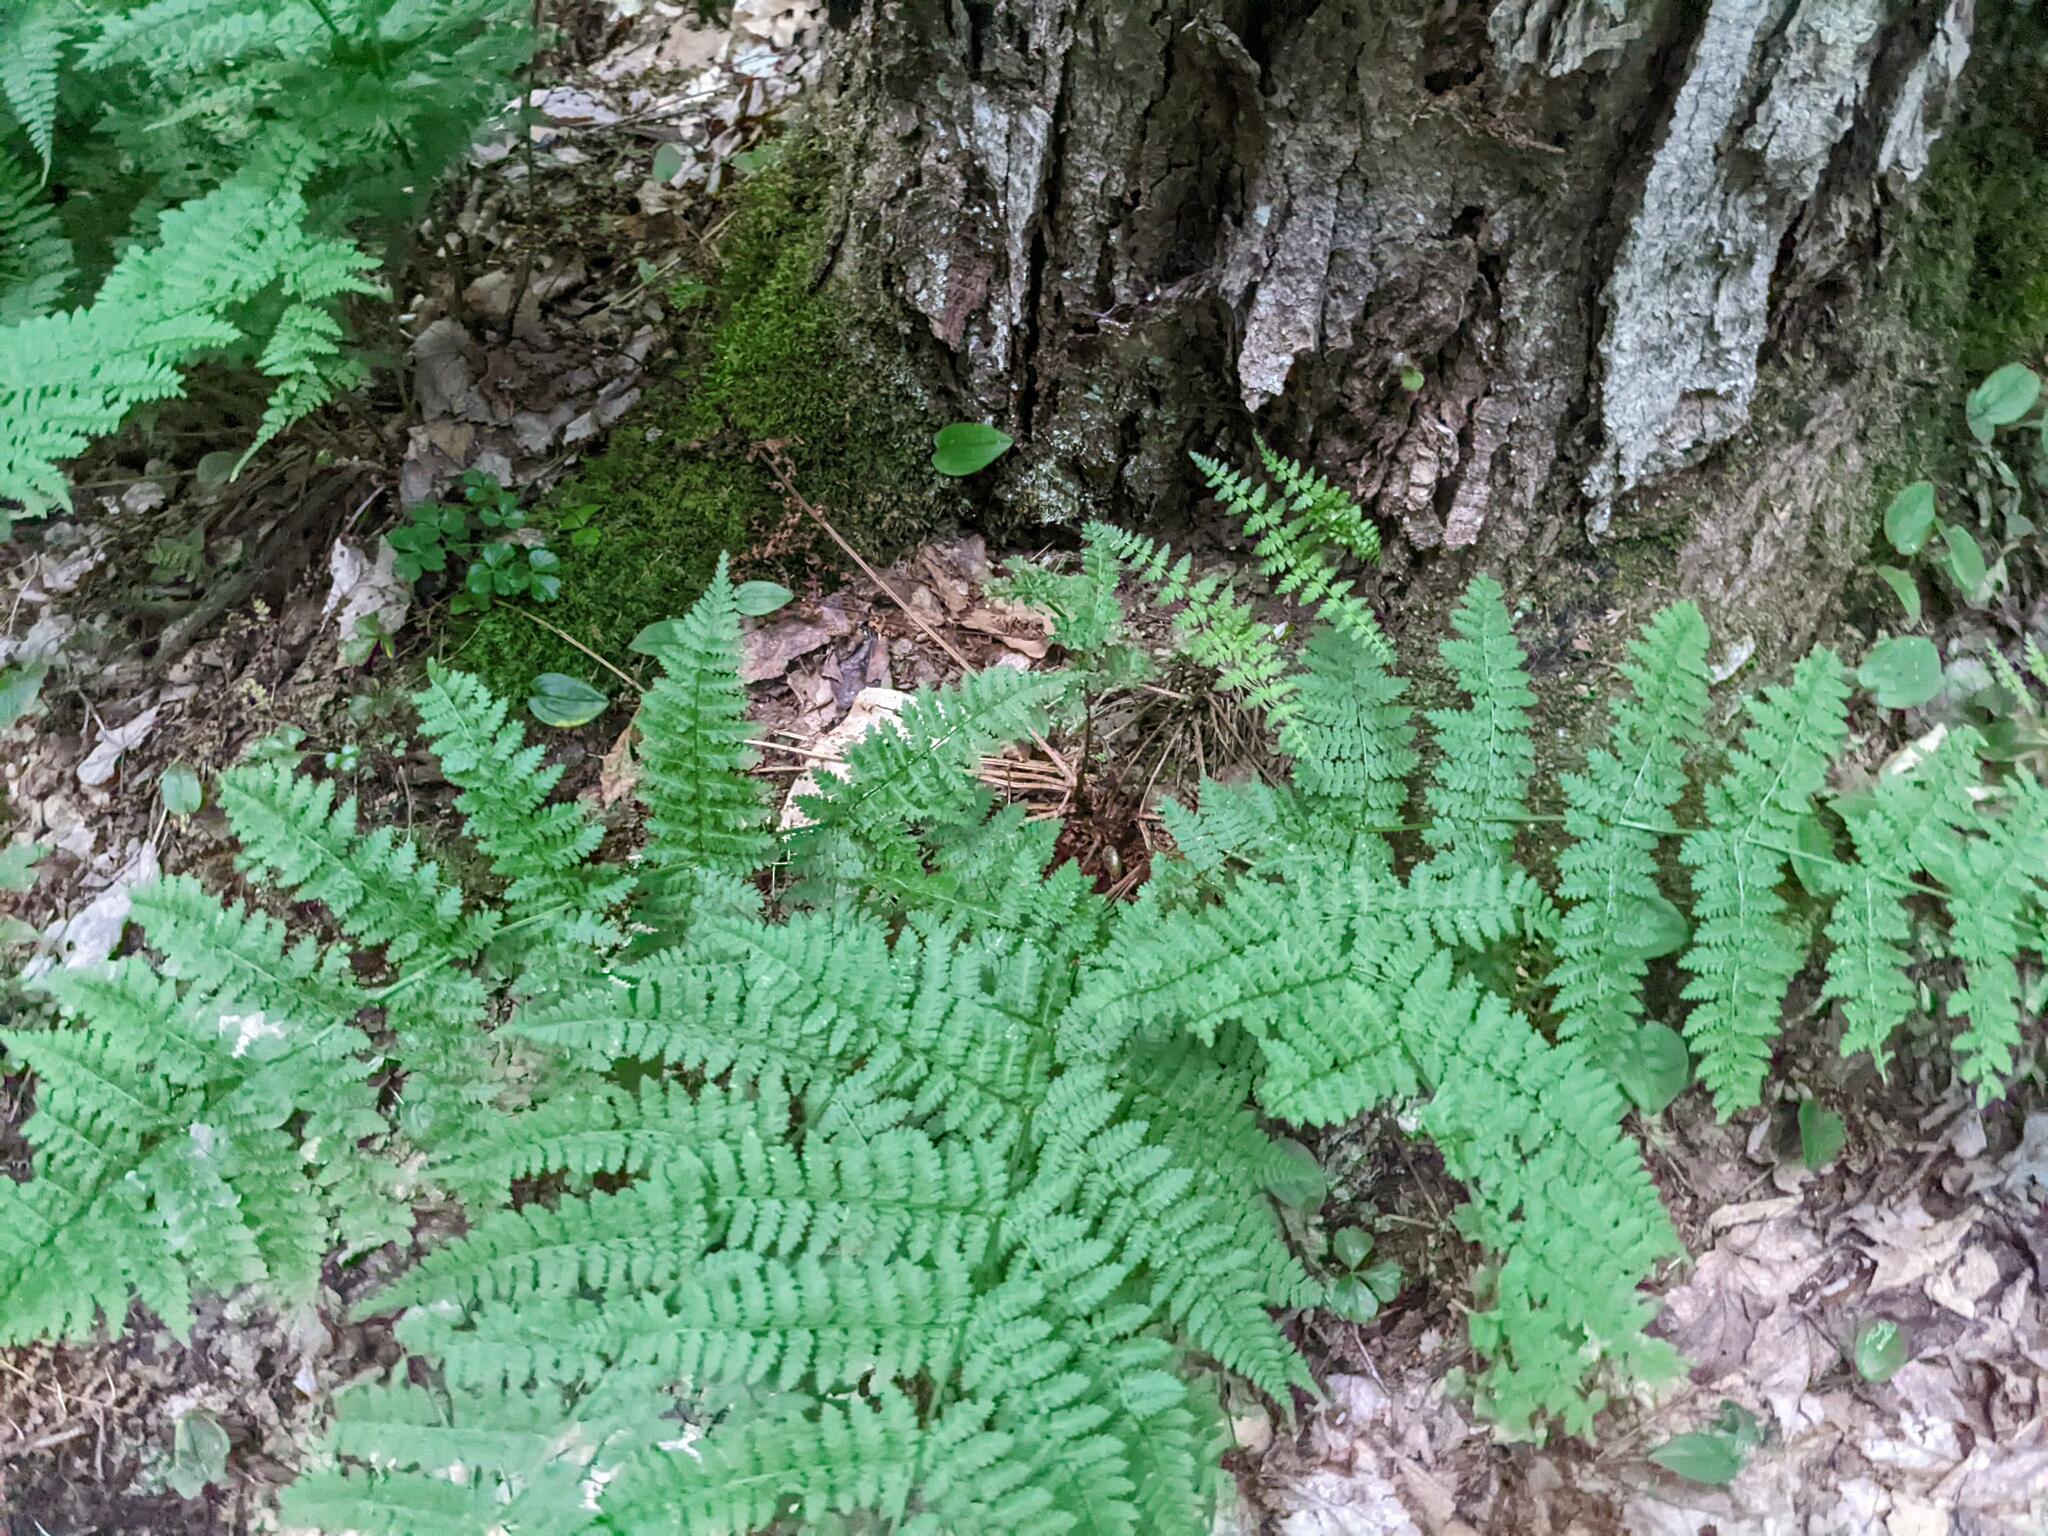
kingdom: Plantae
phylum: Tracheophyta
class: Polypodiopsida
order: Polypodiales
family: Dryopteridaceae
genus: Dryopteris
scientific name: Dryopteris intermedia
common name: Evergreen wood fern
